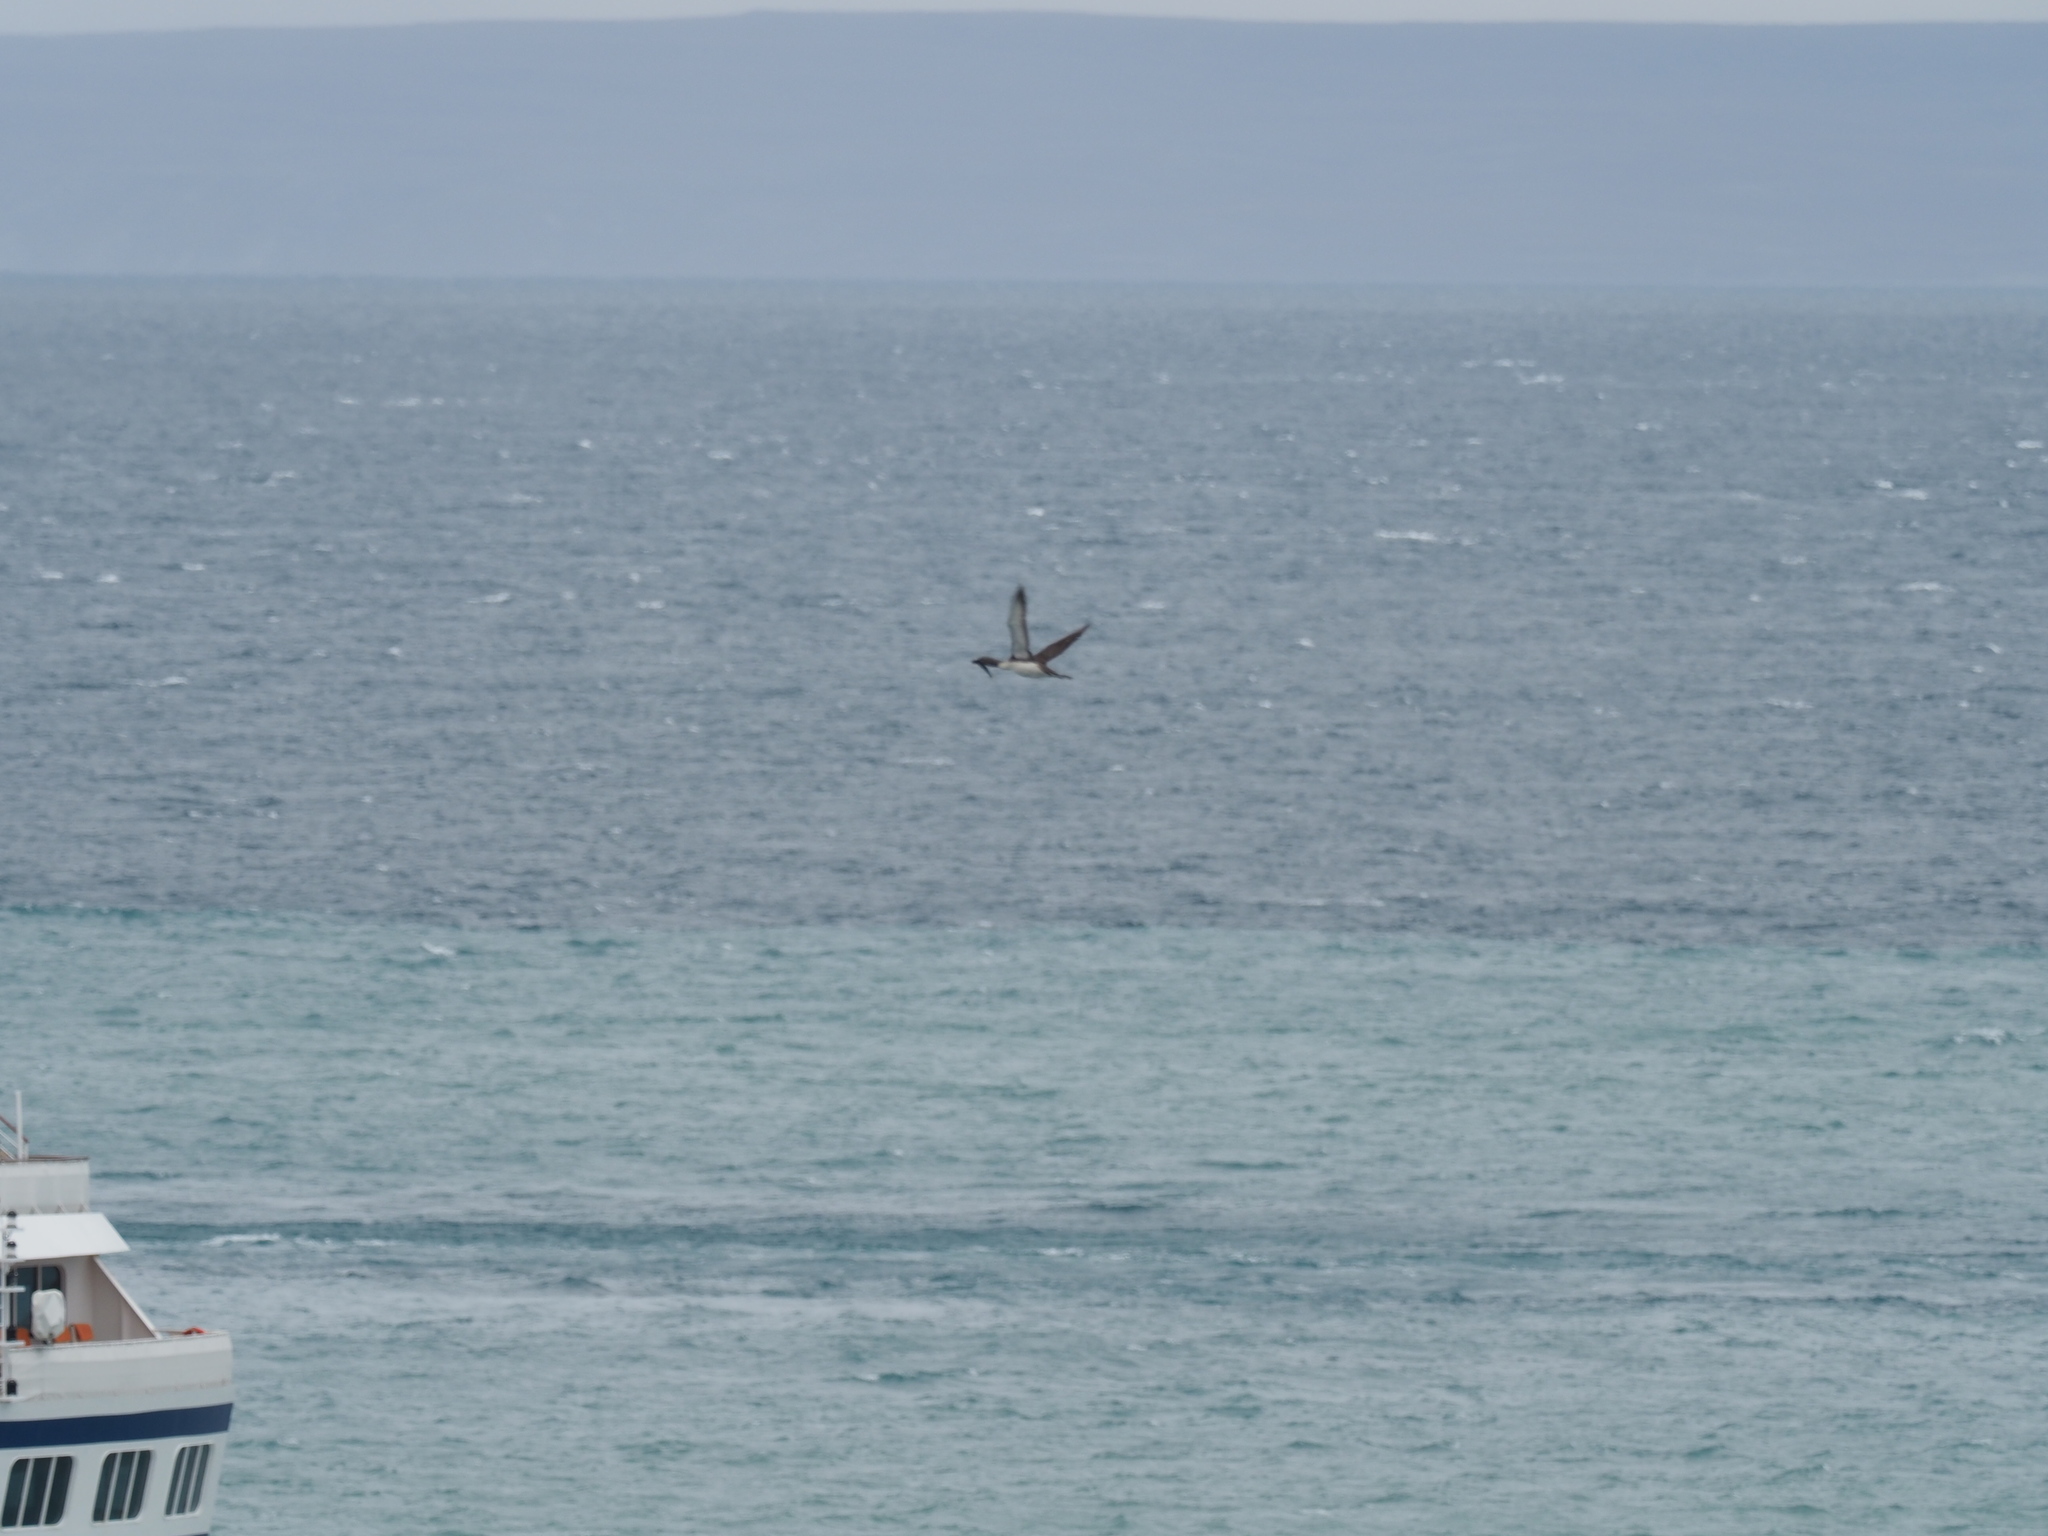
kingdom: Animalia
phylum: Chordata
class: Aves
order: Gaviiformes
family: Gaviidae
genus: Gavia
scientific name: Gavia stellata
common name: Red-throated loon
